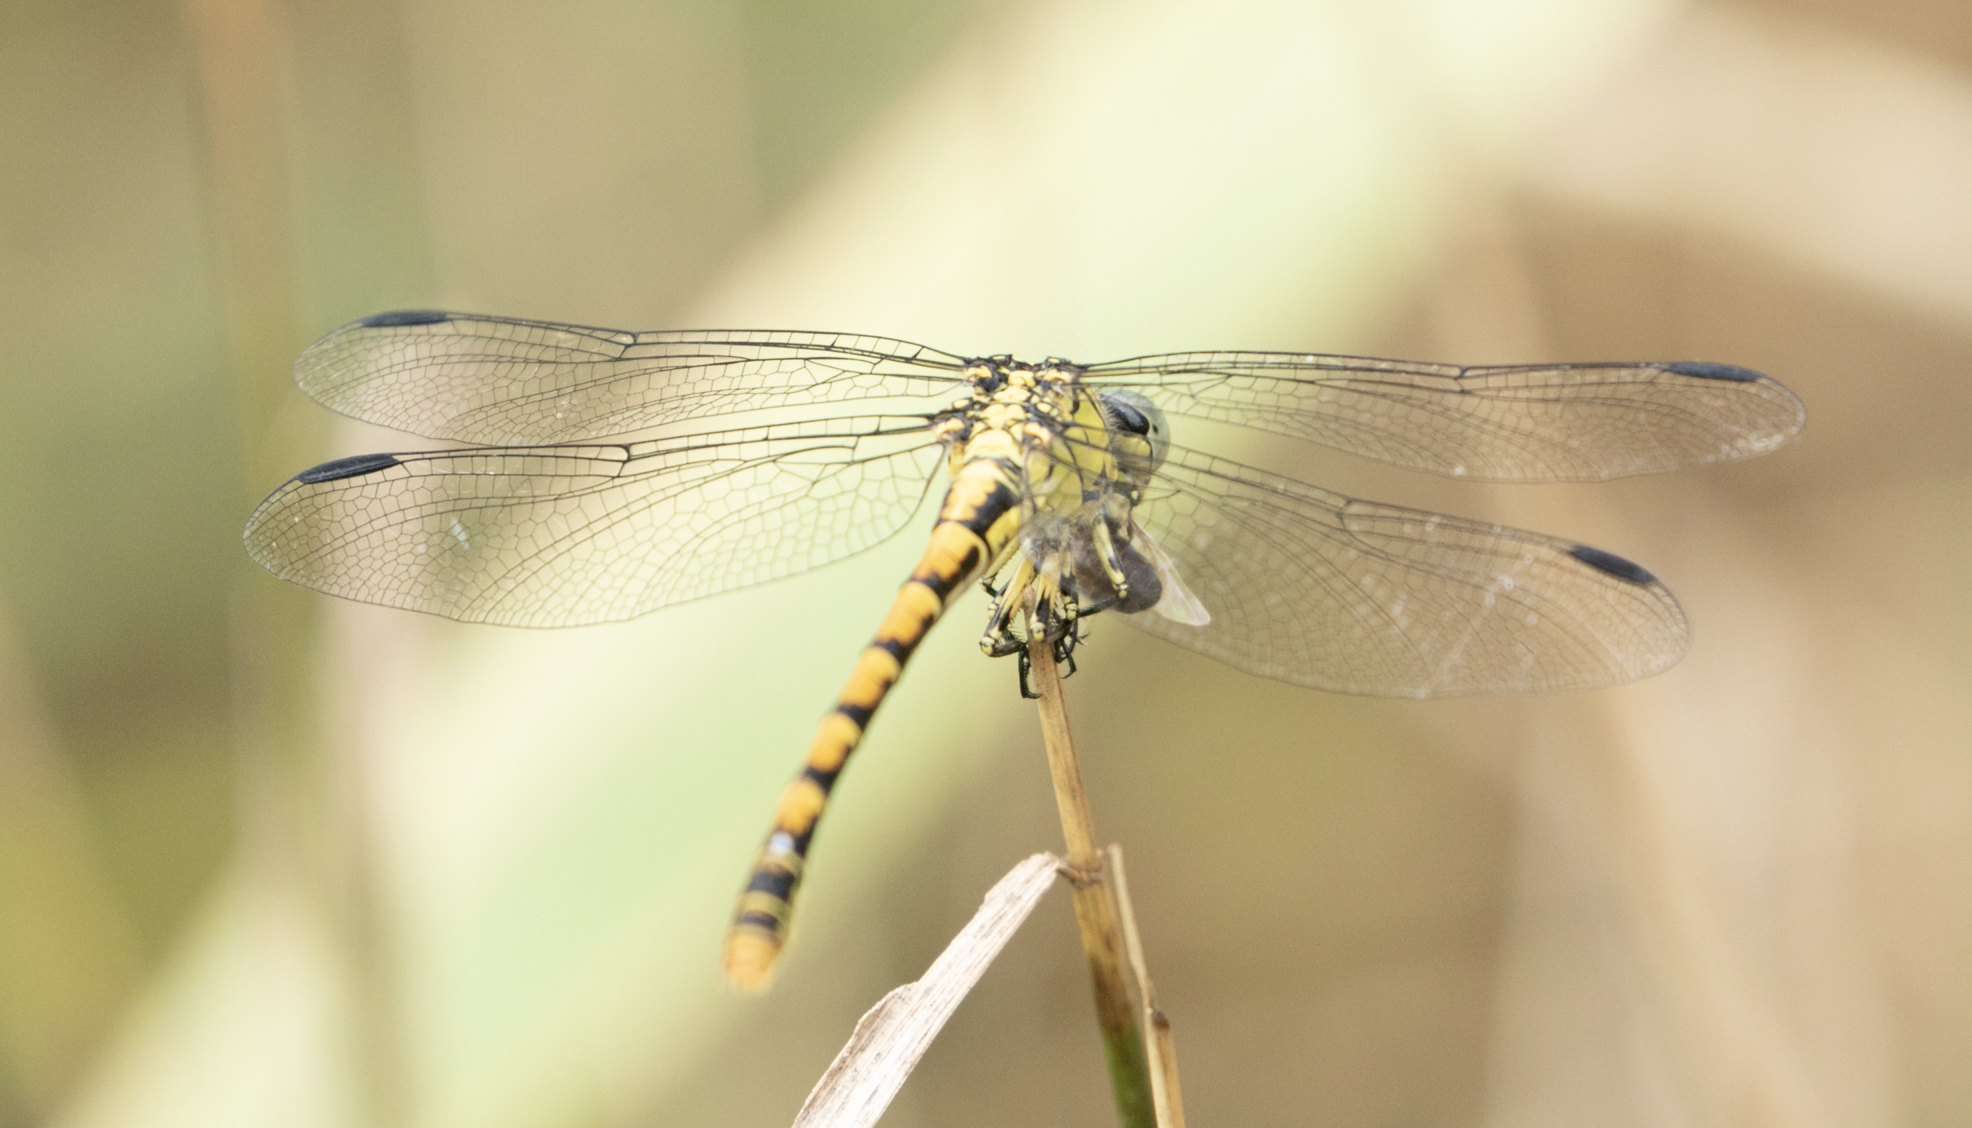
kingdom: Animalia
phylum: Arthropoda
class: Insecta
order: Odonata
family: Gomphidae
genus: Onychogomphus
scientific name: Onychogomphus forcipatus
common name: Small pincertail
